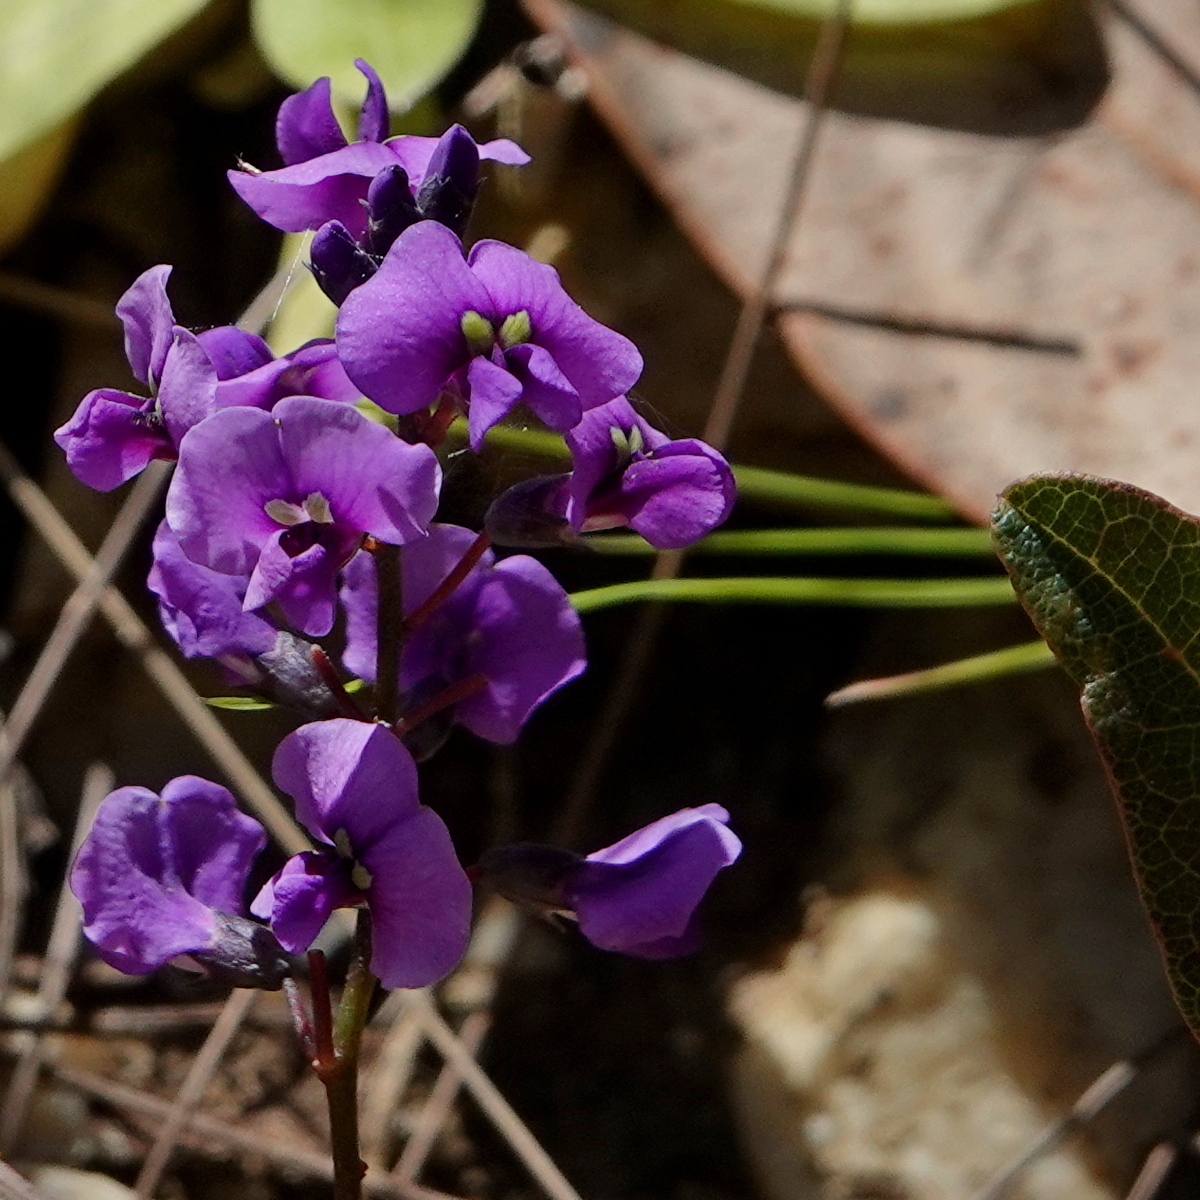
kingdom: Plantae
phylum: Tracheophyta
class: Magnoliopsida
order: Fabales
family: Fabaceae
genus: Hardenbergia
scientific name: Hardenbergia violacea
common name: Coral-pea
